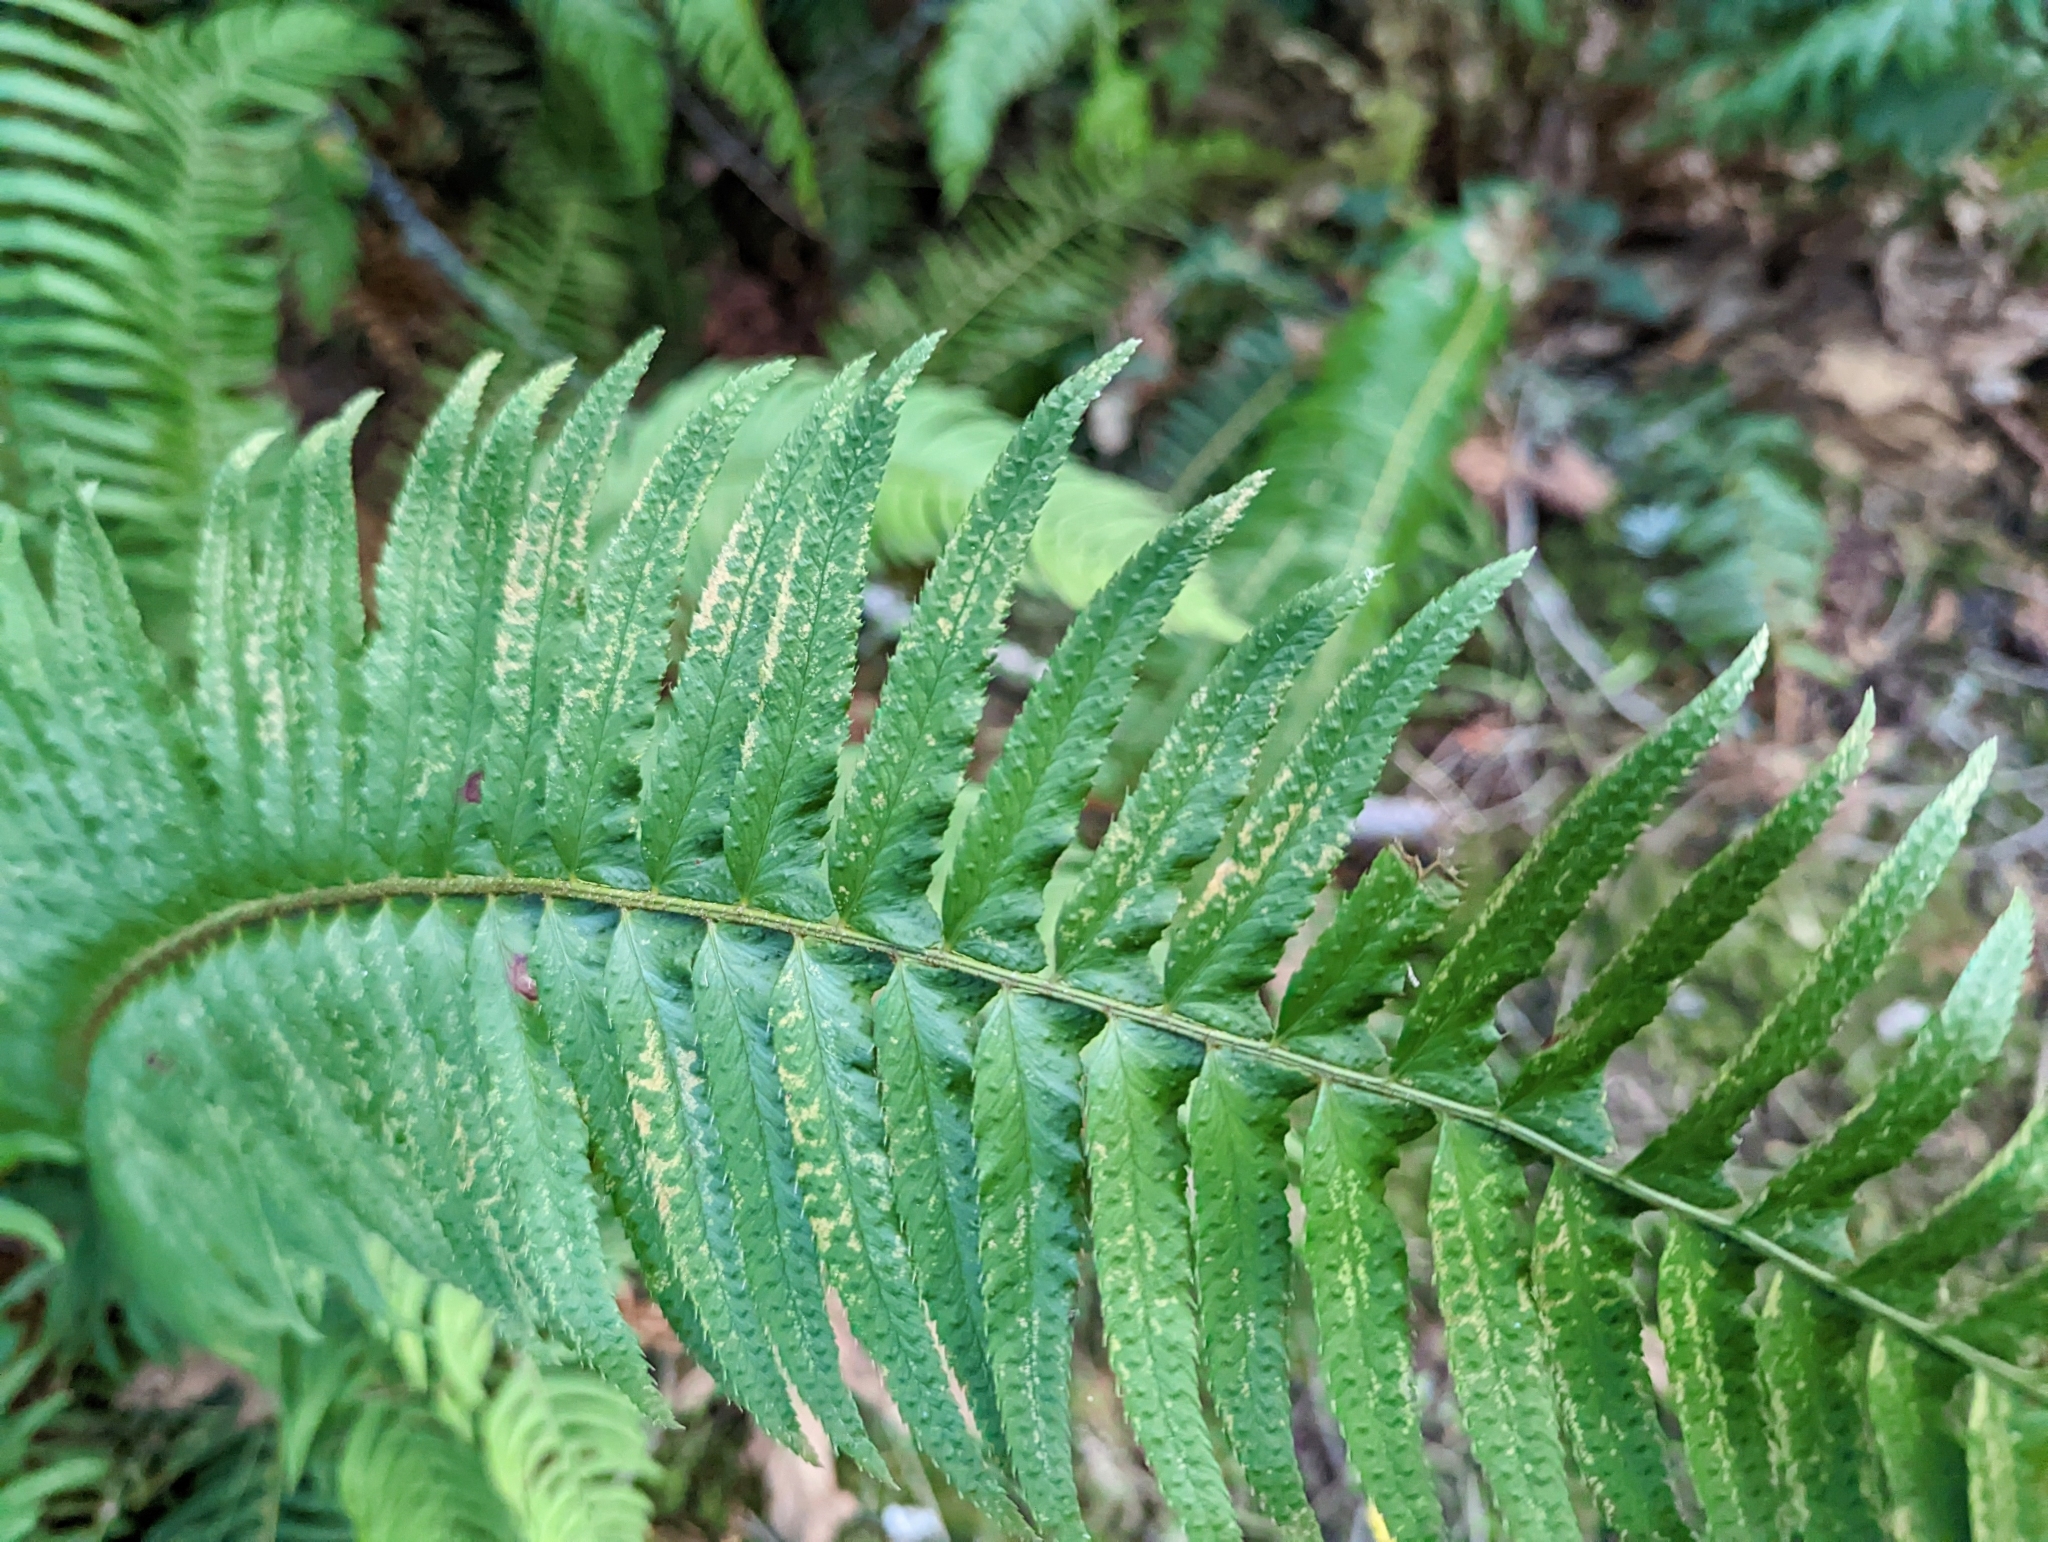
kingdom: Plantae
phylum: Tracheophyta
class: Polypodiopsida
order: Polypodiales
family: Dryopteridaceae
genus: Polystichum
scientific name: Polystichum munitum
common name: Western sword-fern
